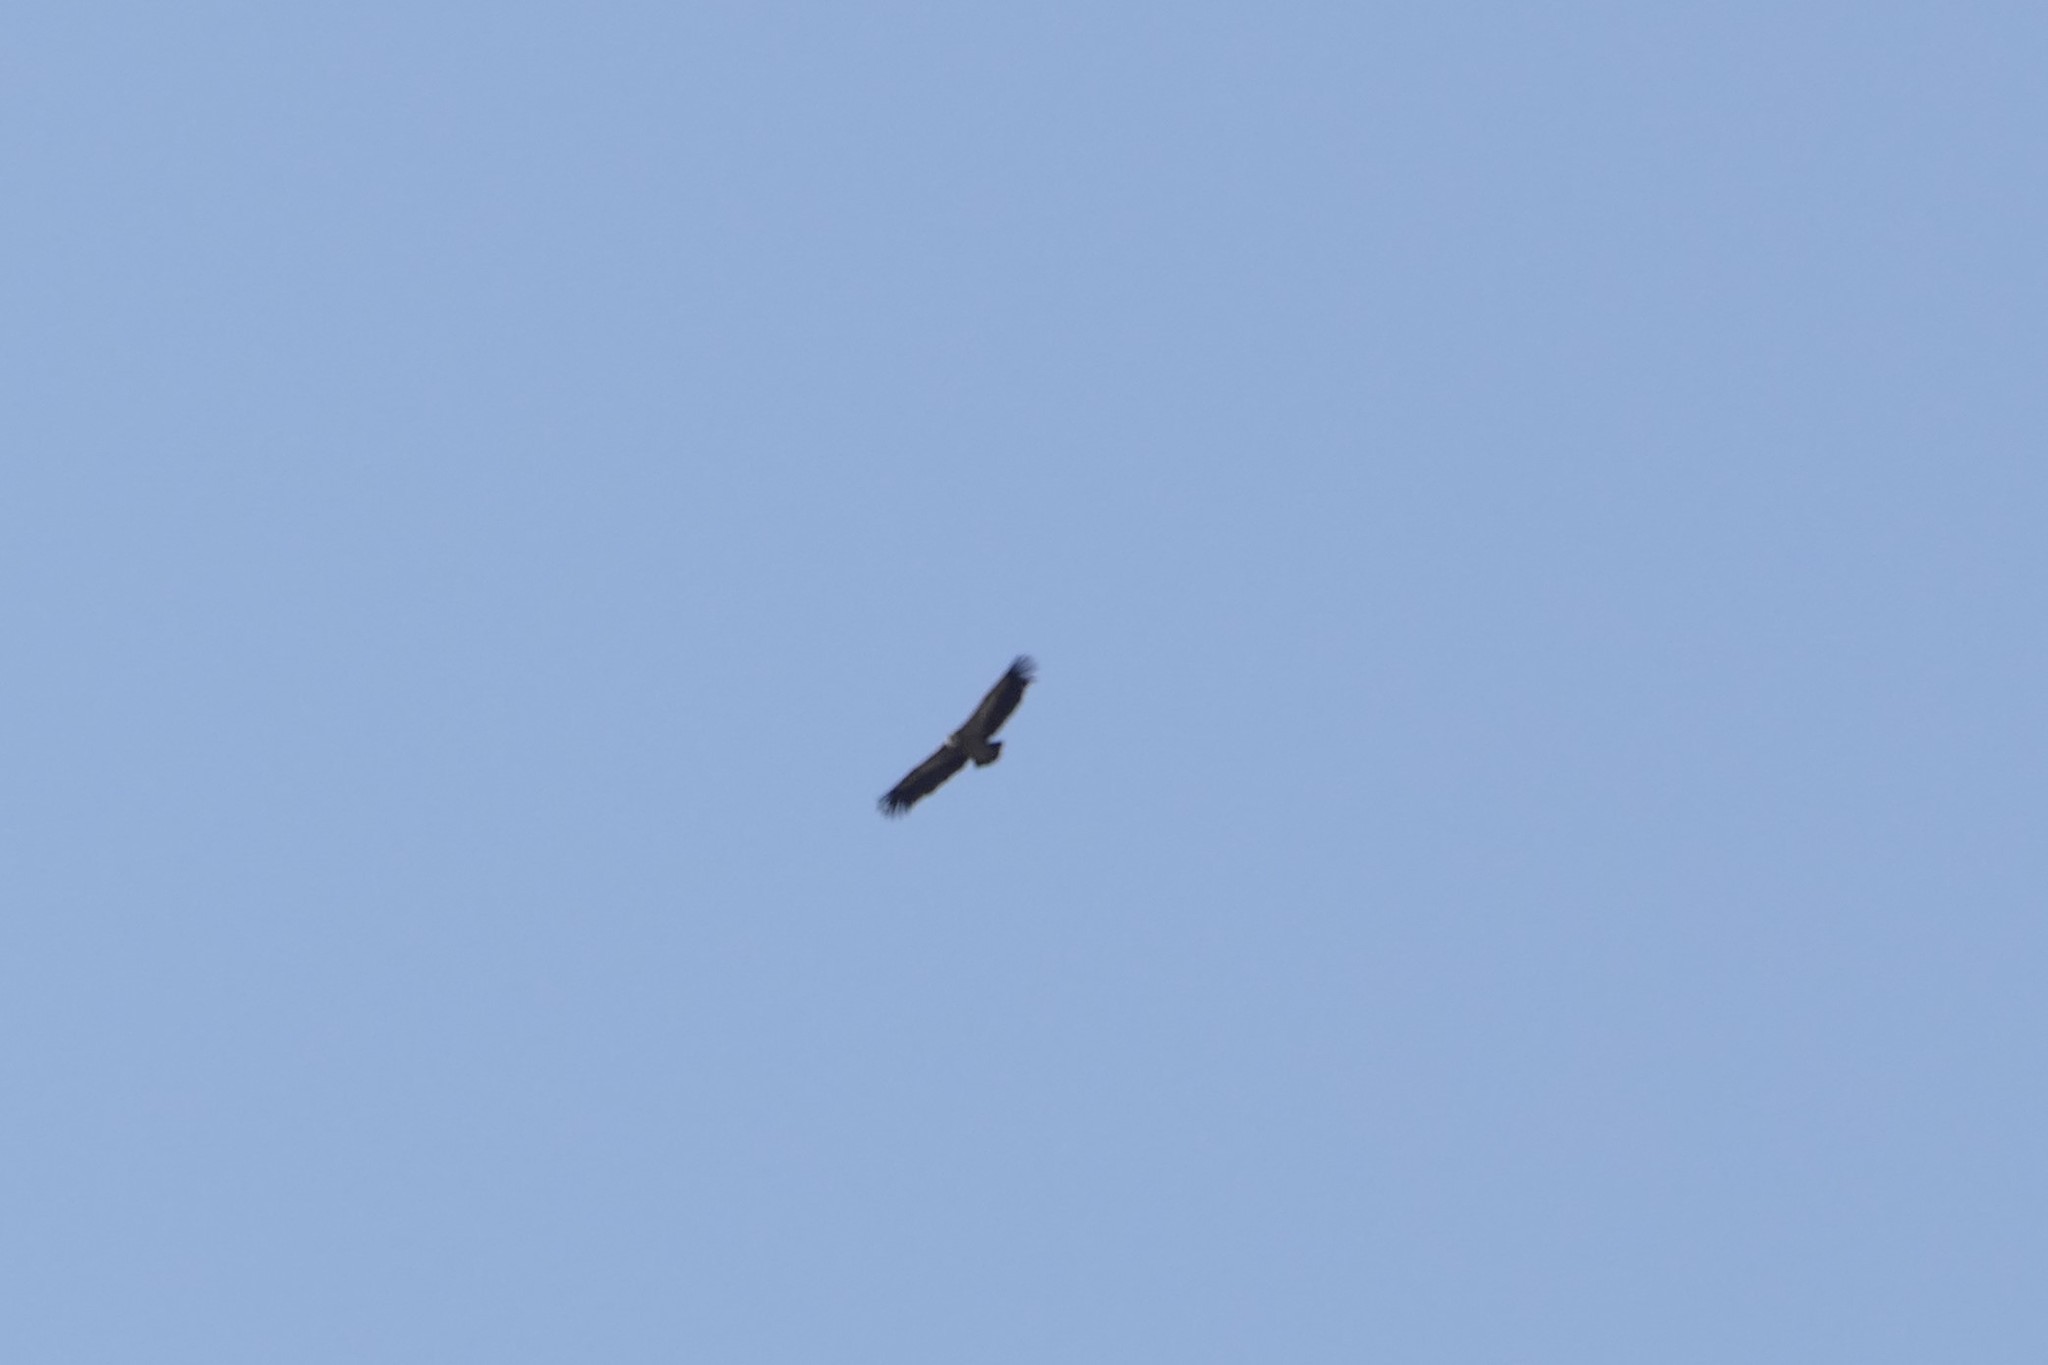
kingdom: Animalia
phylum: Chordata
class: Aves
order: Accipitriformes
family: Accipitridae
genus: Gyps
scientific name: Gyps fulvus
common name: Griffon vulture
